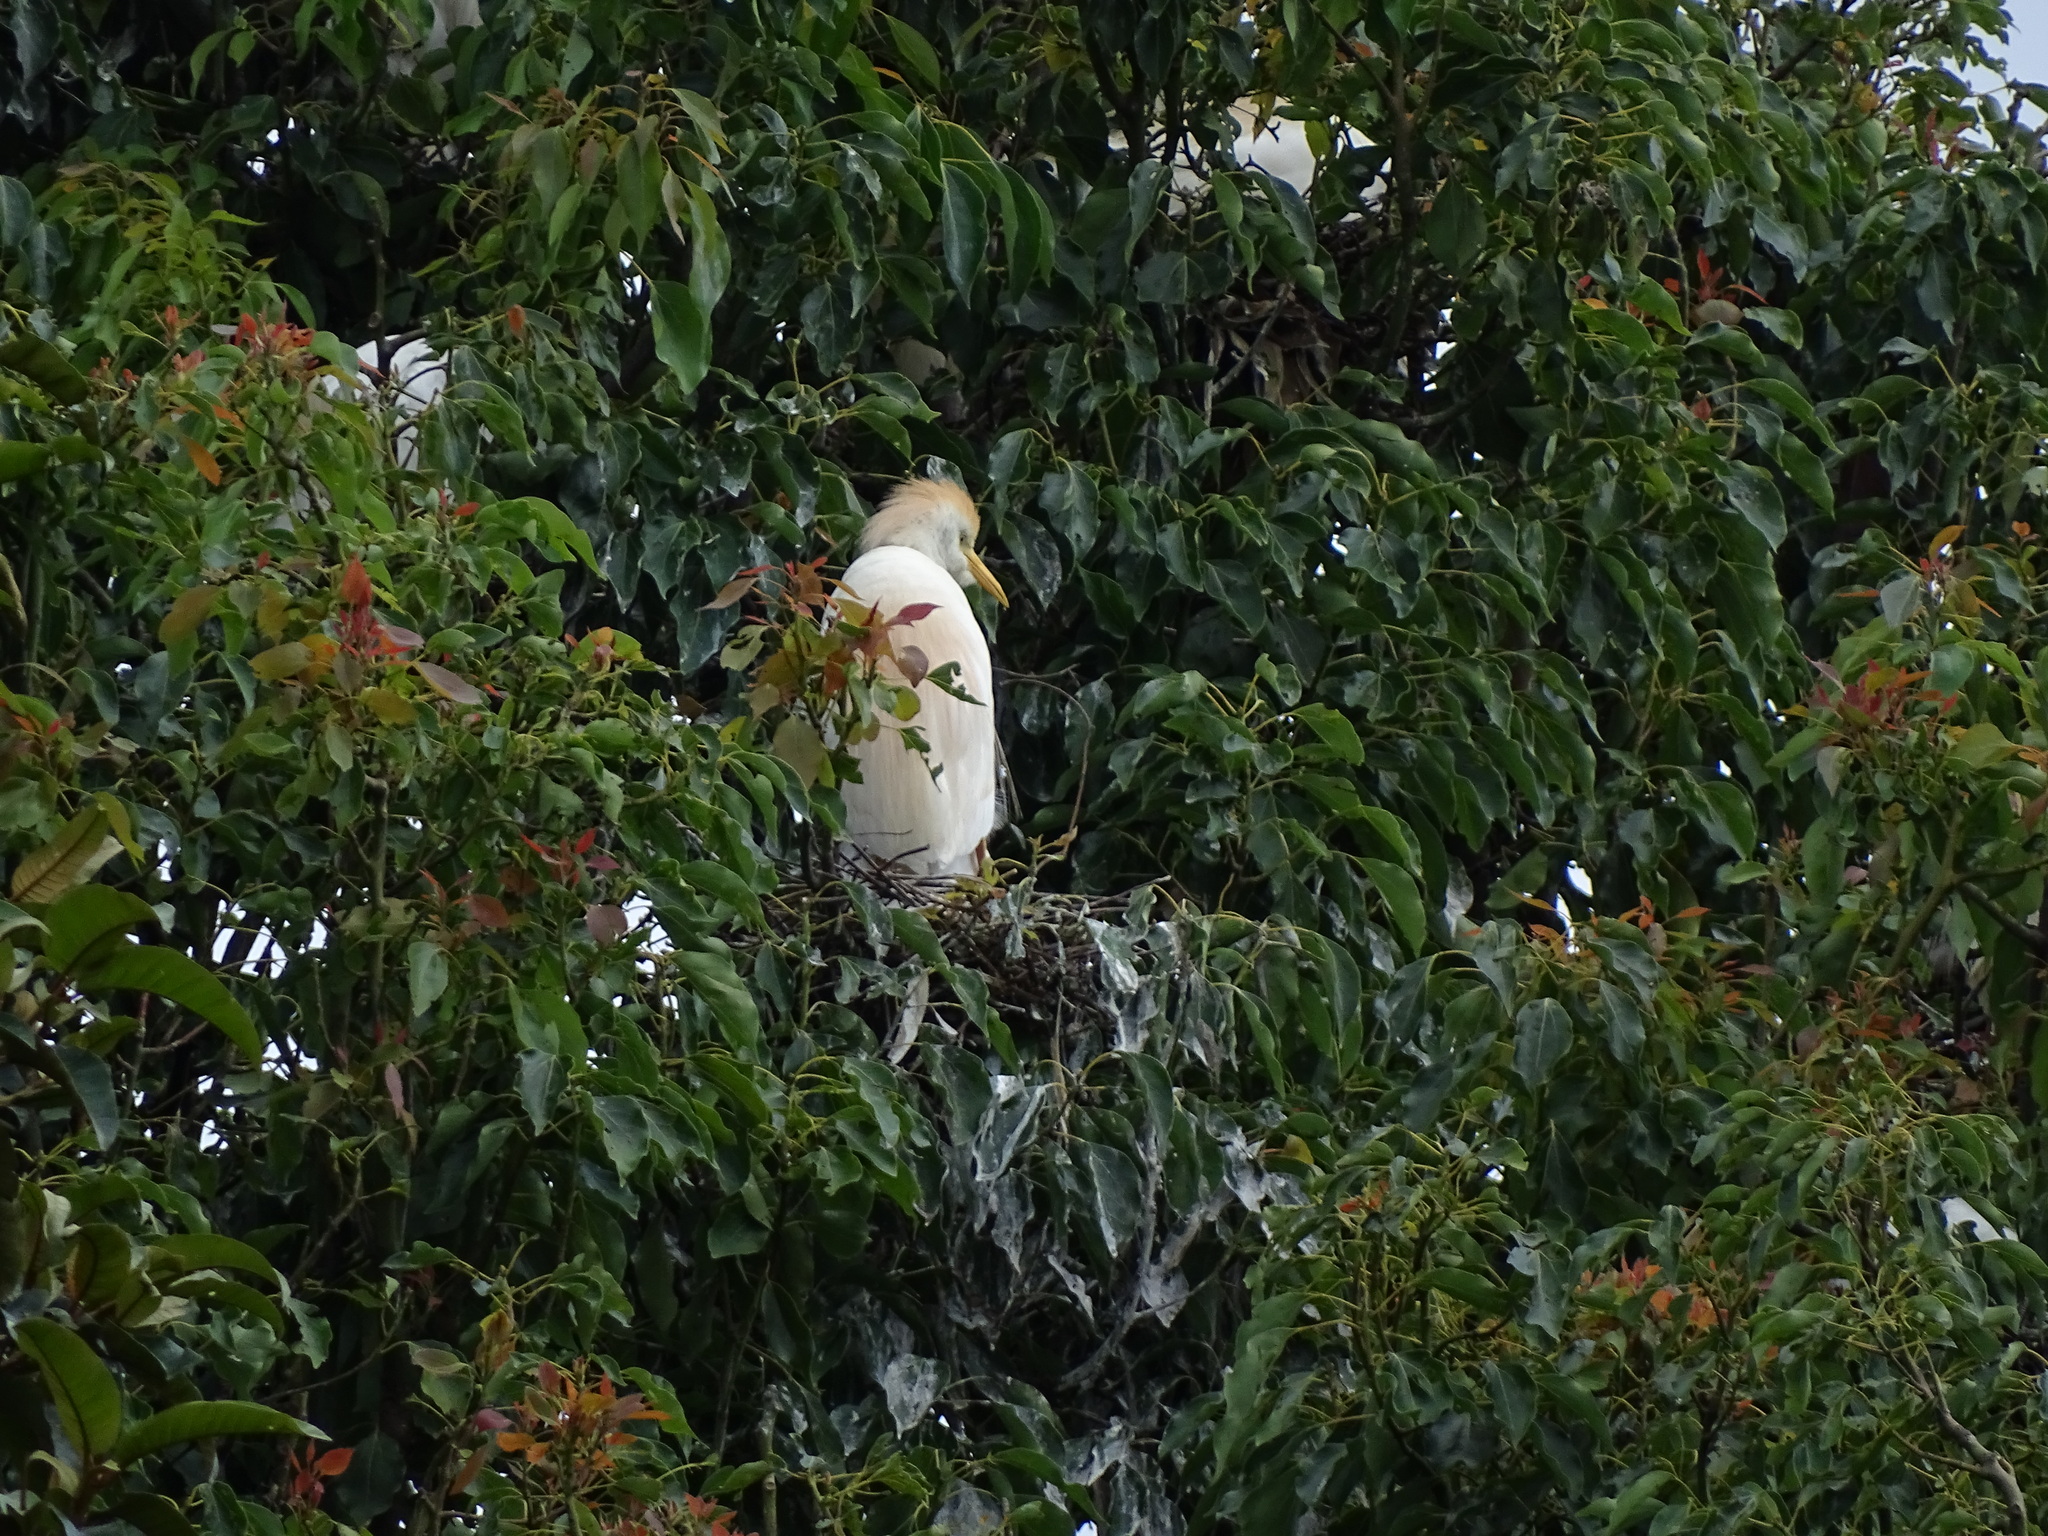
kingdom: Animalia
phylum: Chordata
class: Aves
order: Pelecaniformes
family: Ardeidae
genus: Bubulcus
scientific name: Bubulcus ibis
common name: Cattle egret
